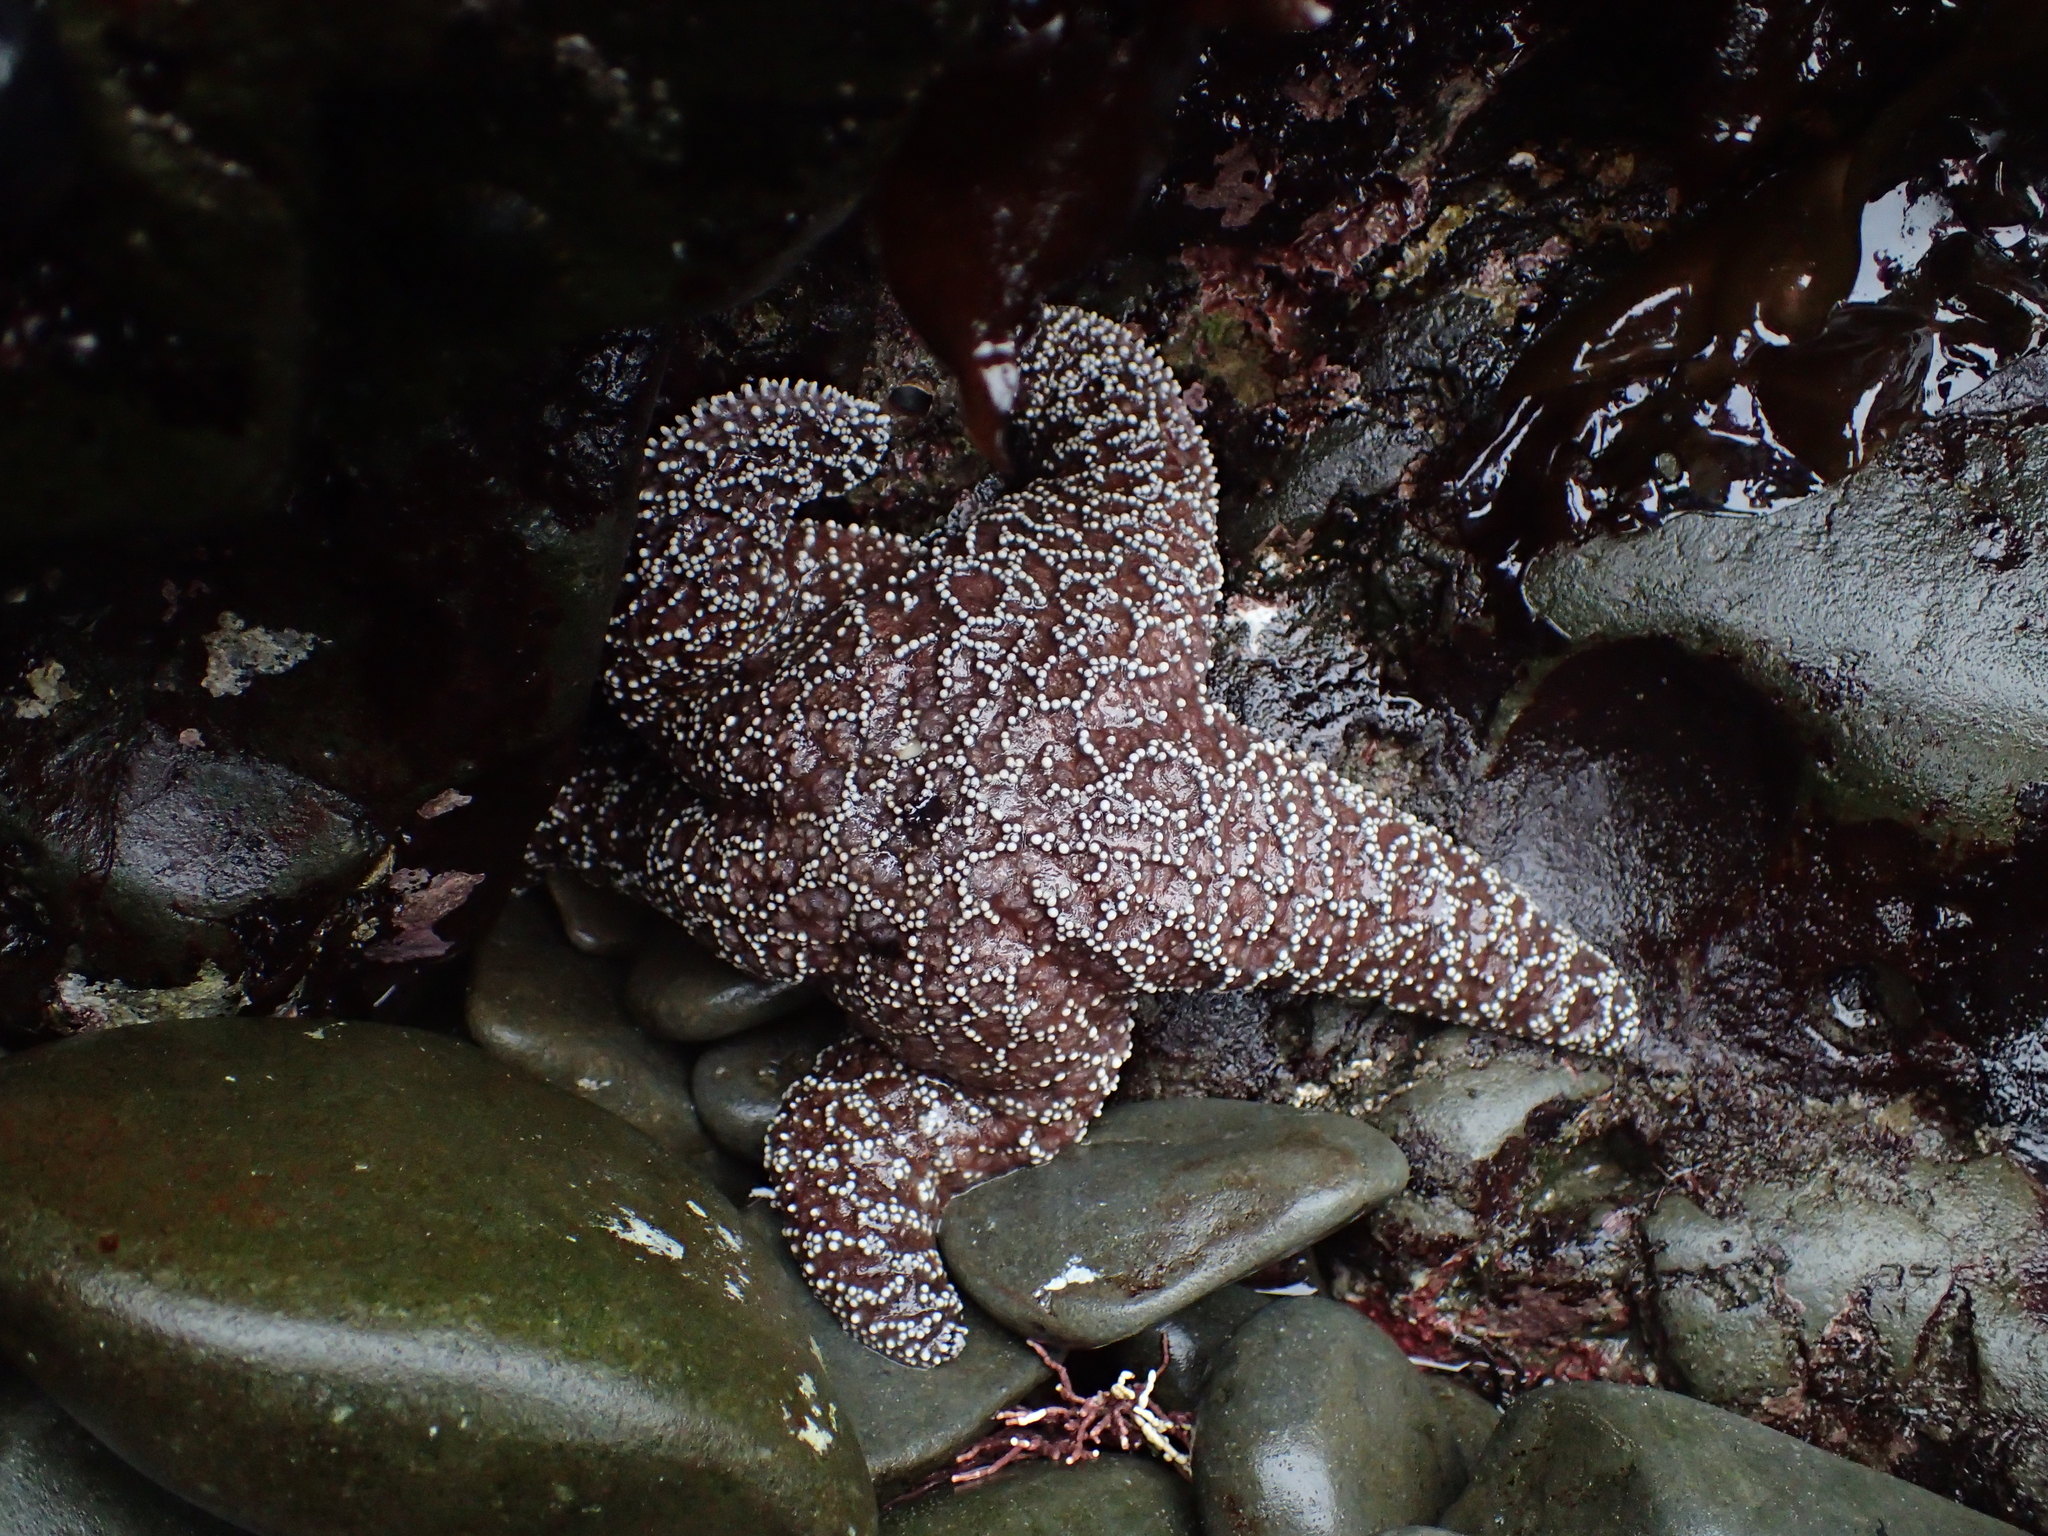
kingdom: Animalia
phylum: Echinodermata
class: Asteroidea
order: Forcipulatida
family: Asteriidae
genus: Pisaster
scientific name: Pisaster ochraceus
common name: Ochre stars
